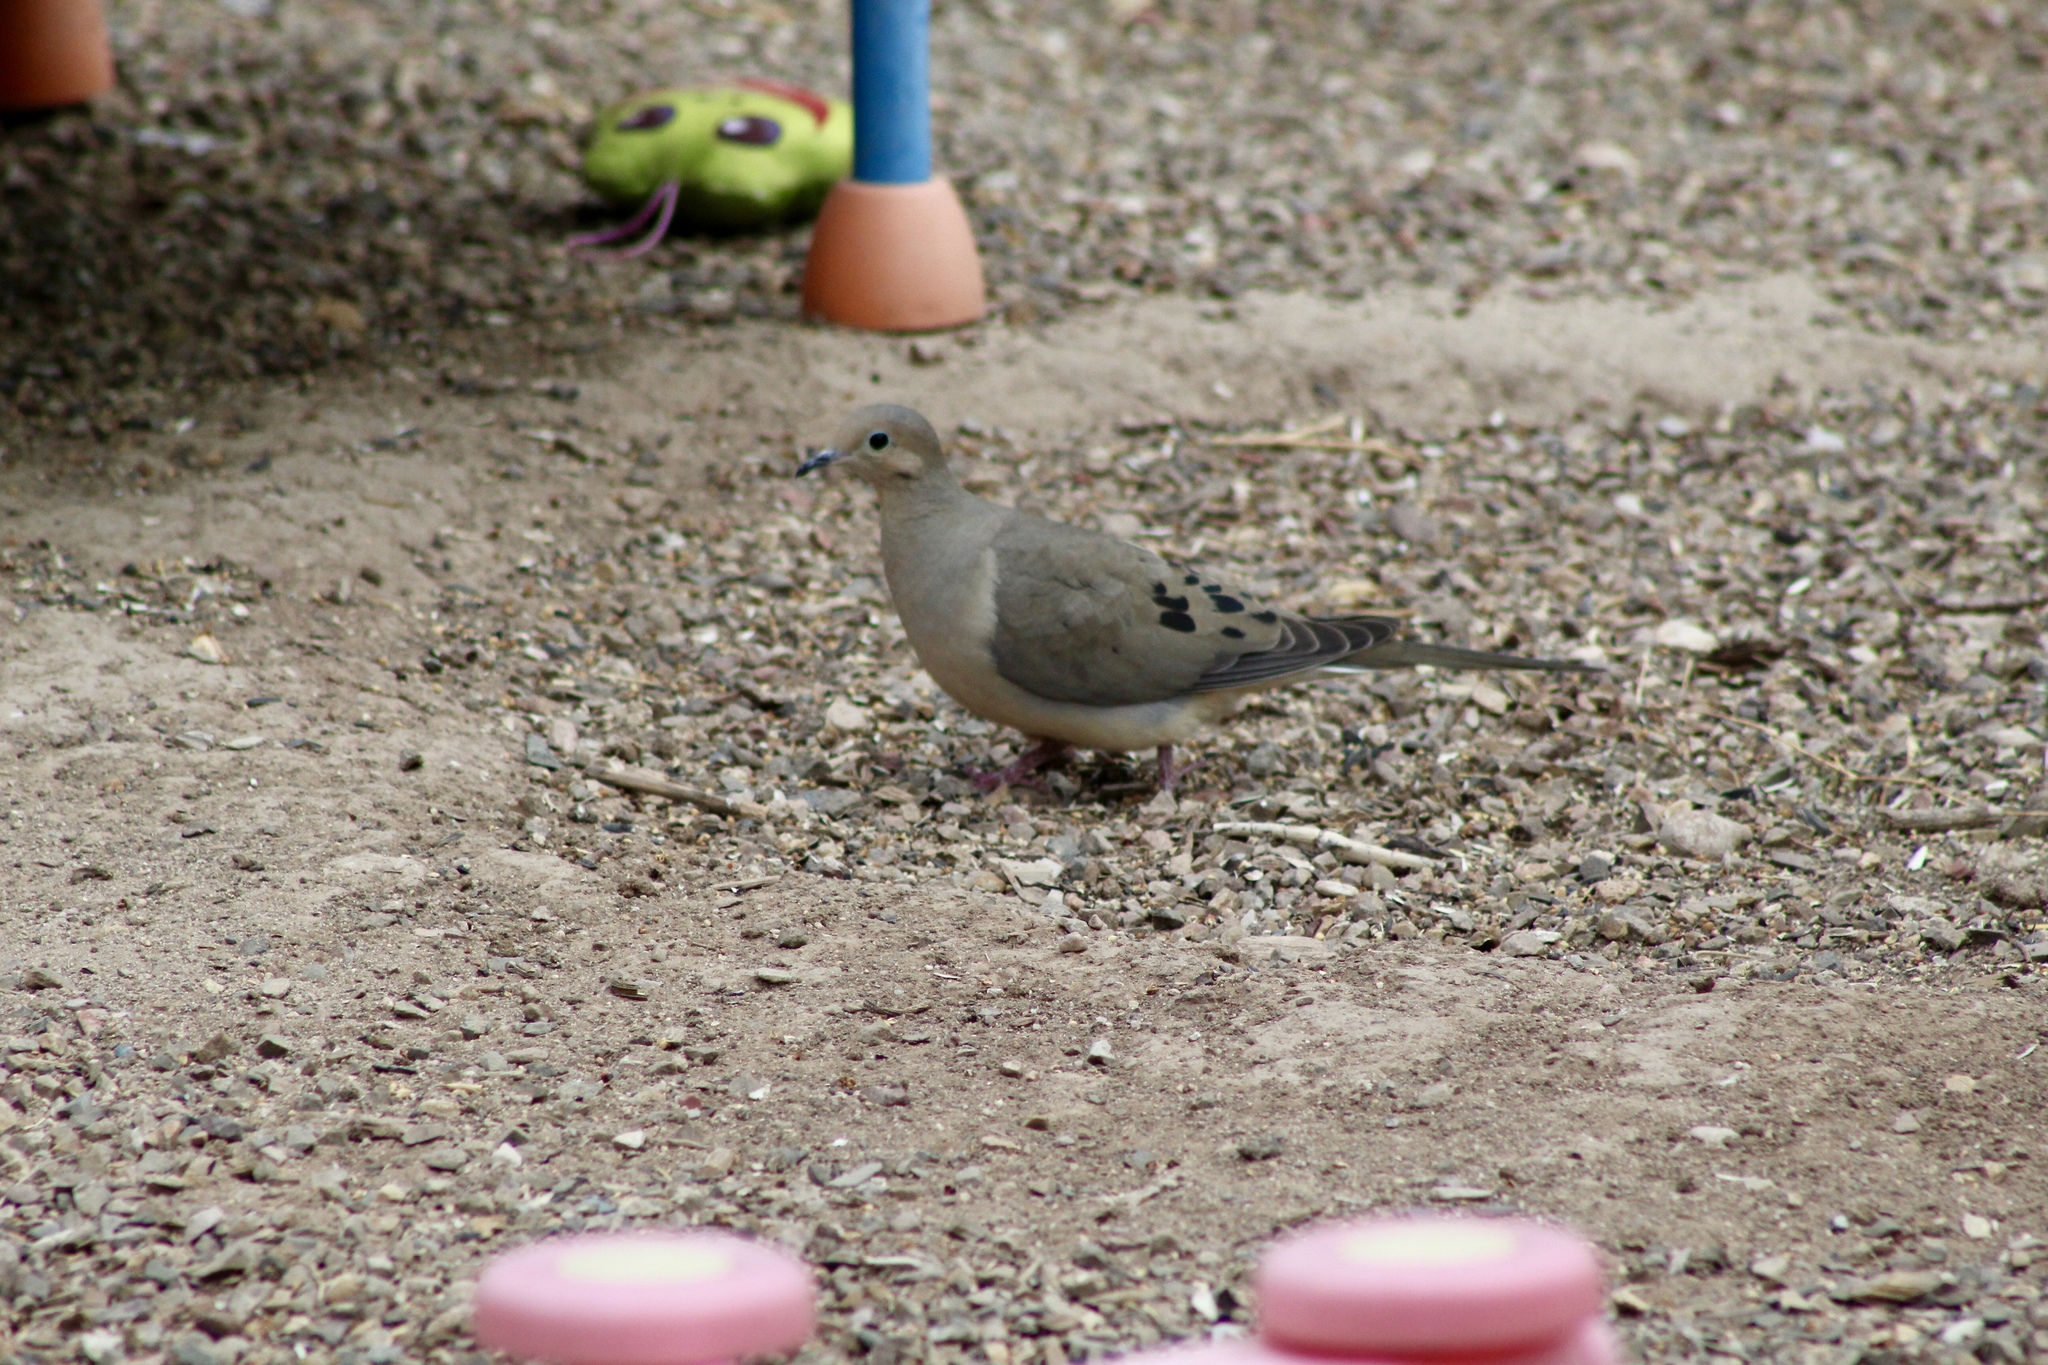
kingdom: Animalia
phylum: Chordata
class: Aves
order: Columbiformes
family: Columbidae
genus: Zenaida
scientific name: Zenaida macroura
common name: Mourning dove
